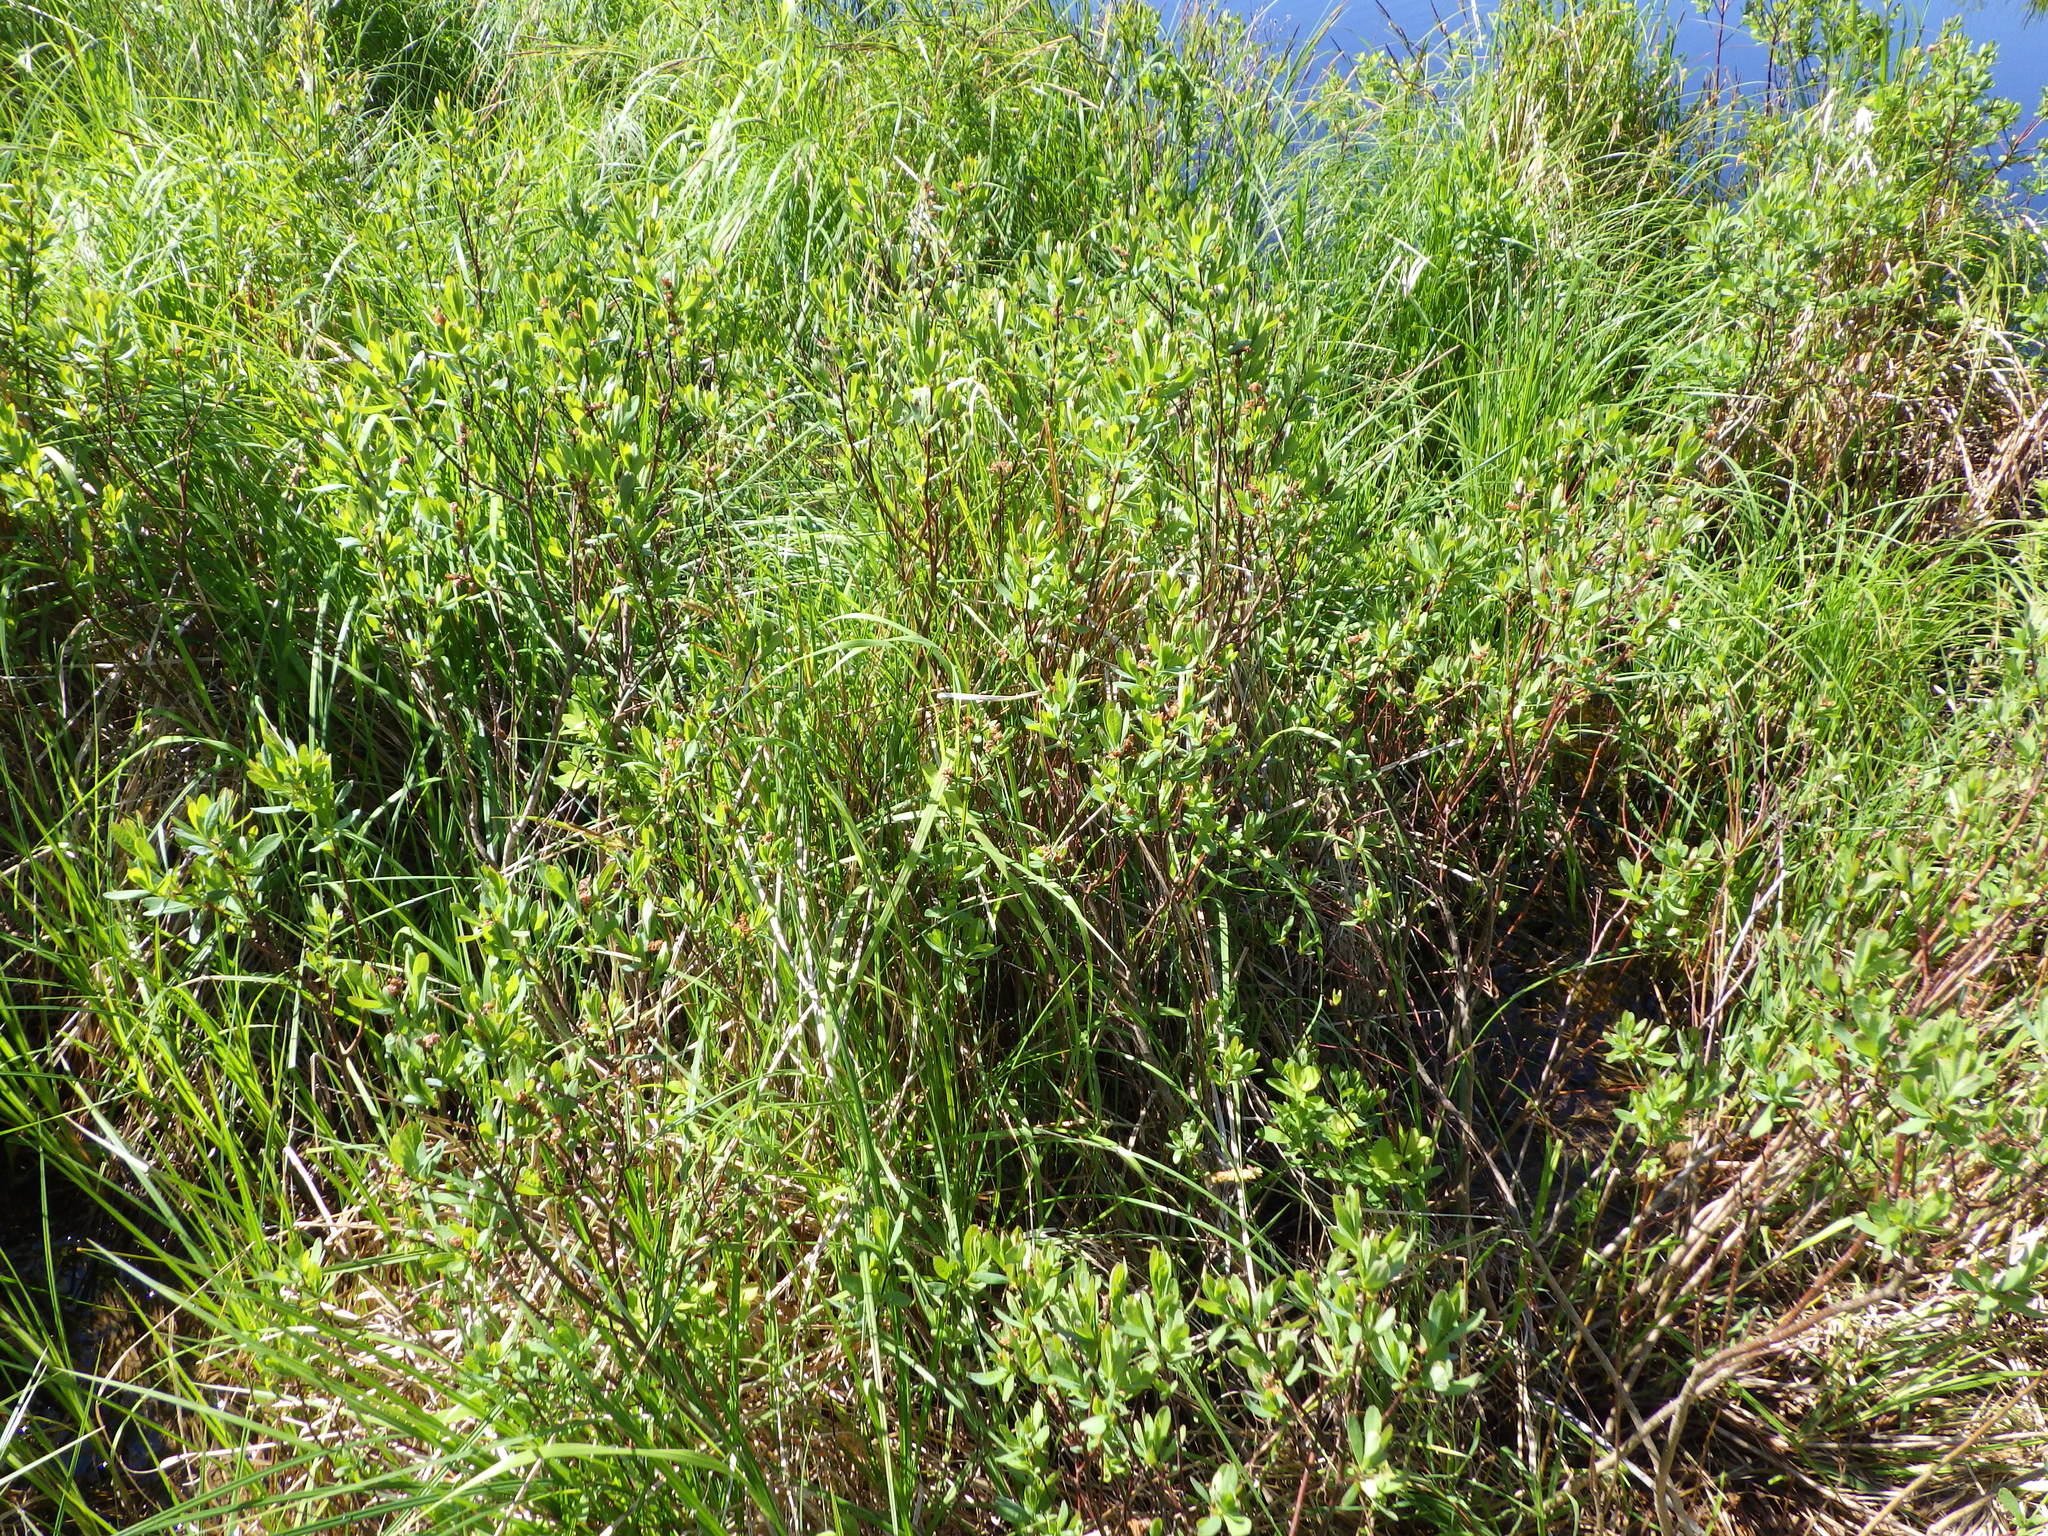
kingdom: Plantae
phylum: Tracheophyta
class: Magnoliopsida
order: Fagales
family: Myricaceae
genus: Myrica
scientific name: Myrica gale
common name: Sweet gale
